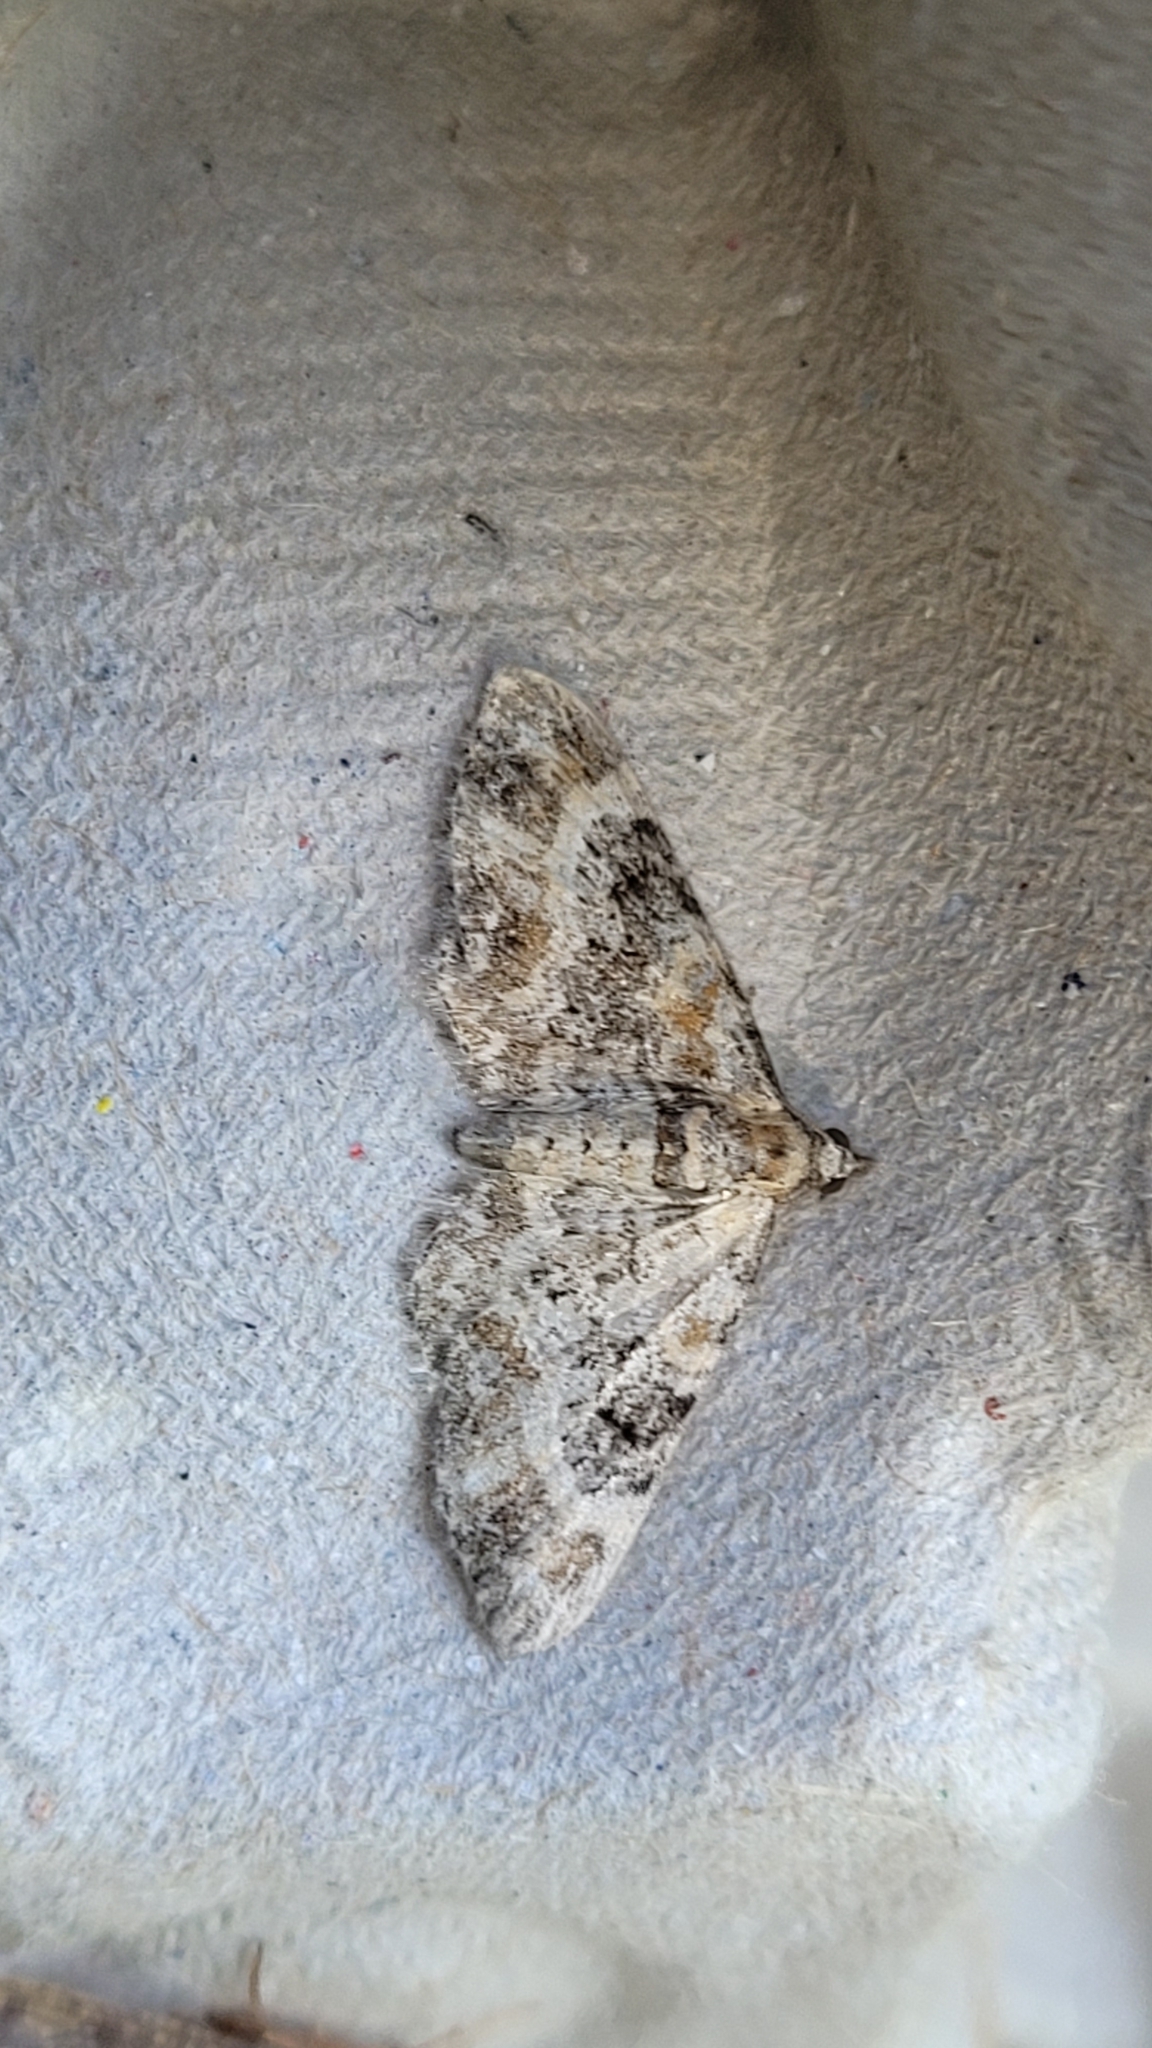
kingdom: Animalia
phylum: Arthropoda
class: Insecta
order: Lepidoptera
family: Geometridae
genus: Eupithecia
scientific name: Eupithecia pulchellata
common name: Foxglove pug
